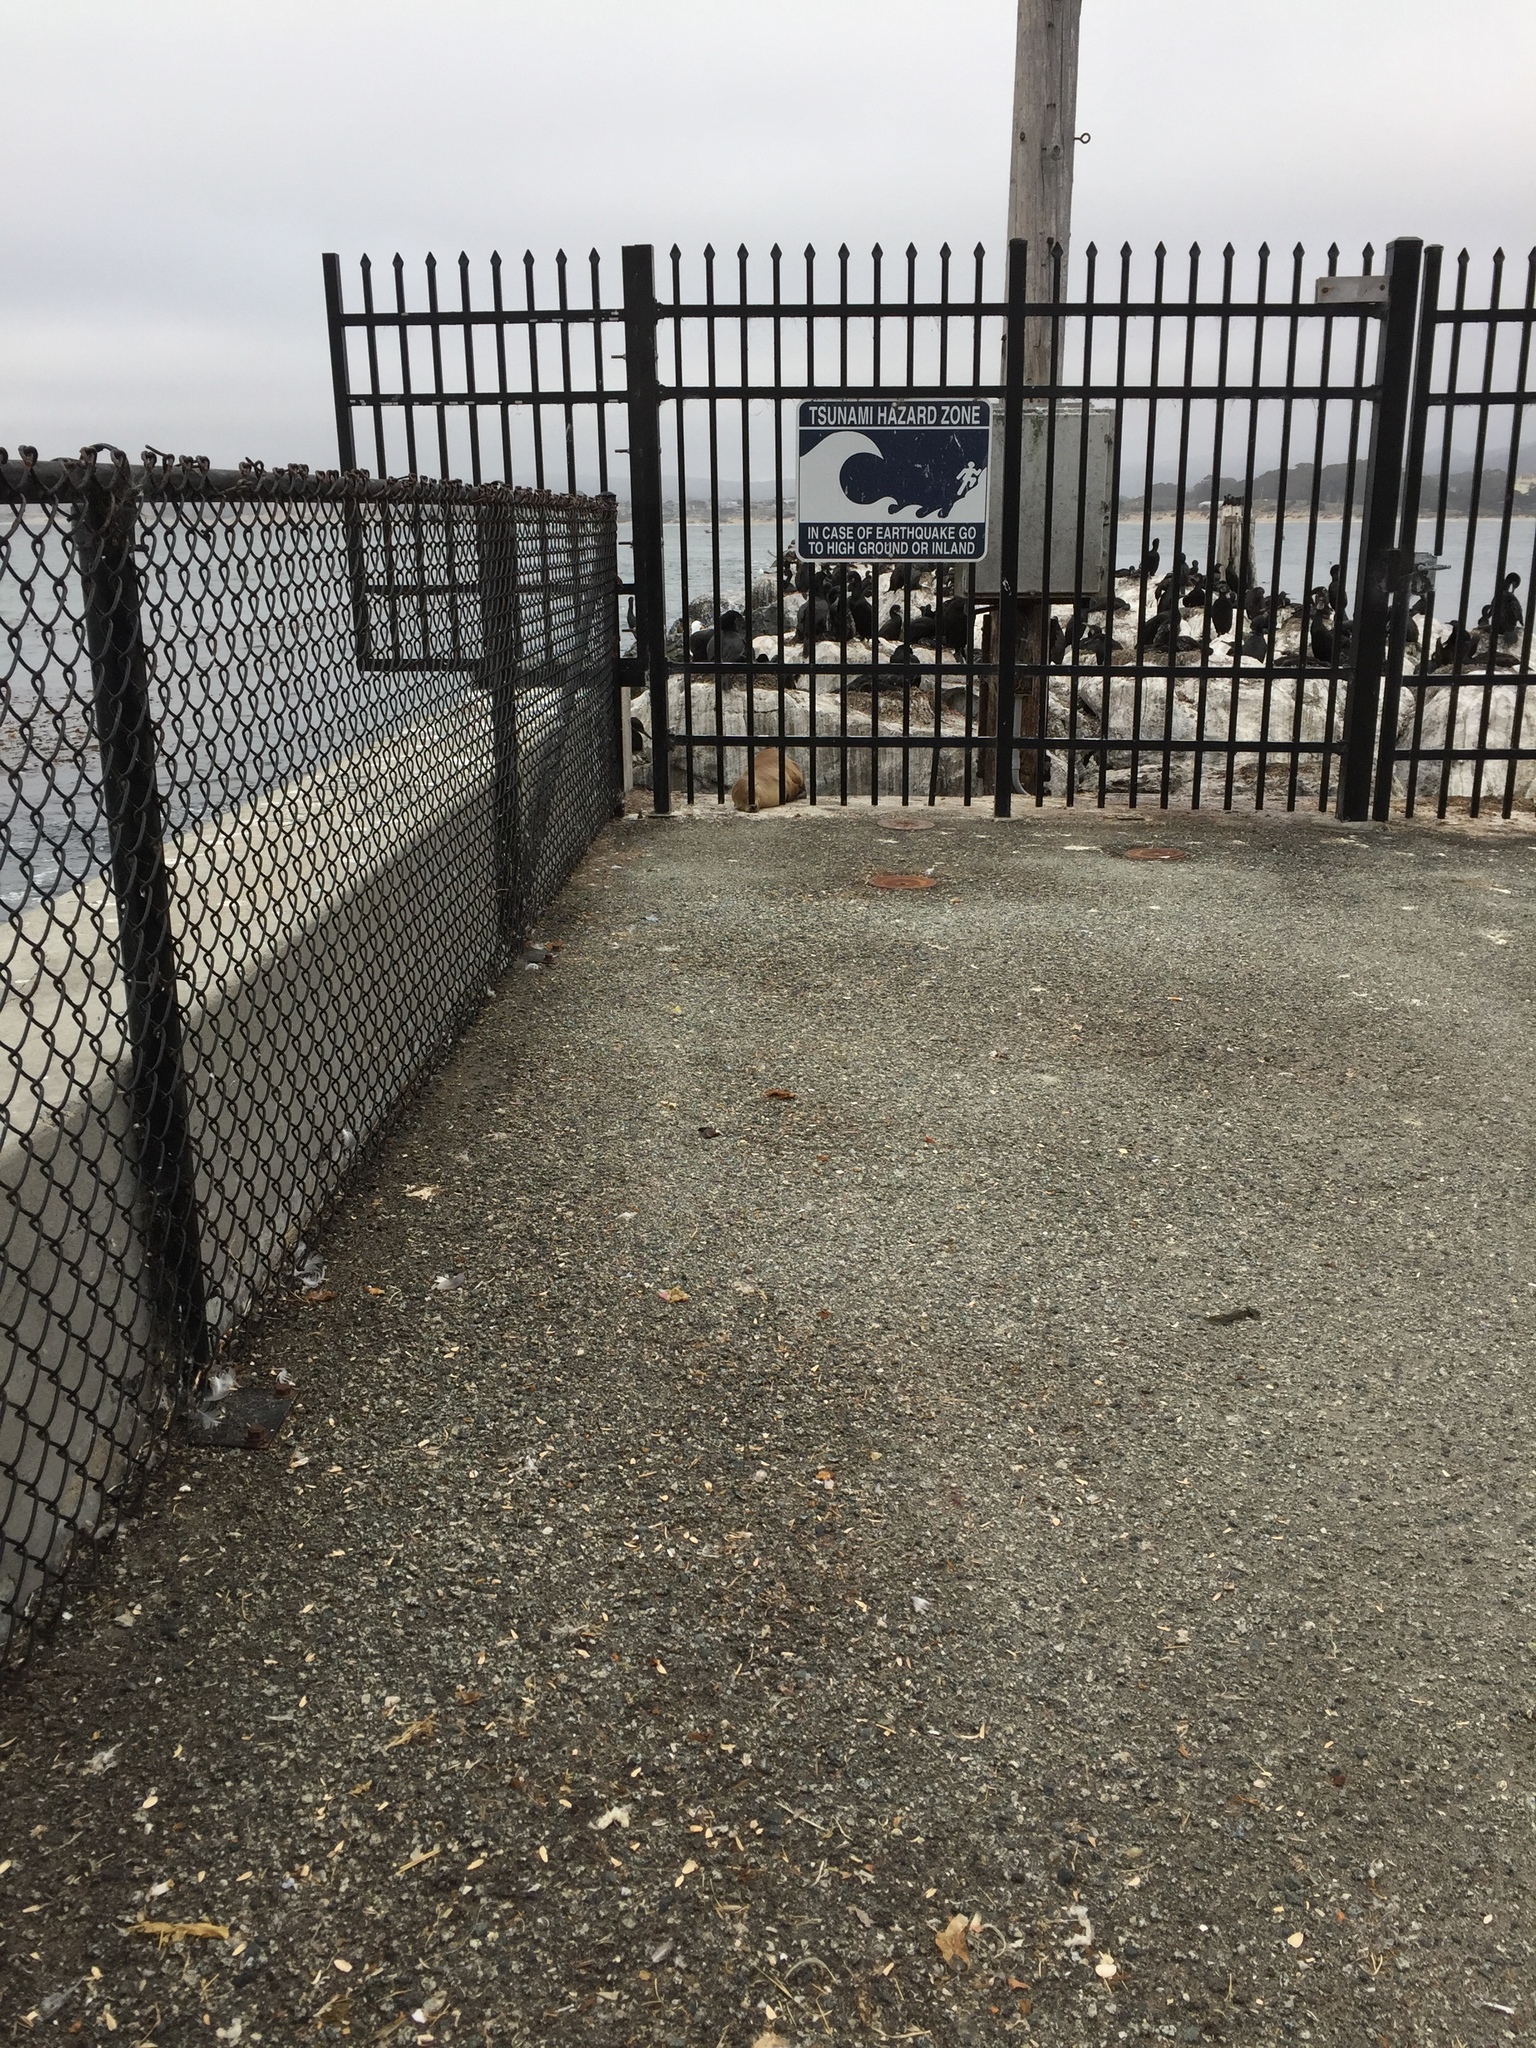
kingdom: Animalia
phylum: Chordata
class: Mammalia
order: Carnivora
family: Otariidae
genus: Zalophus
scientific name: Zalophus californianus
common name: California sea lion
